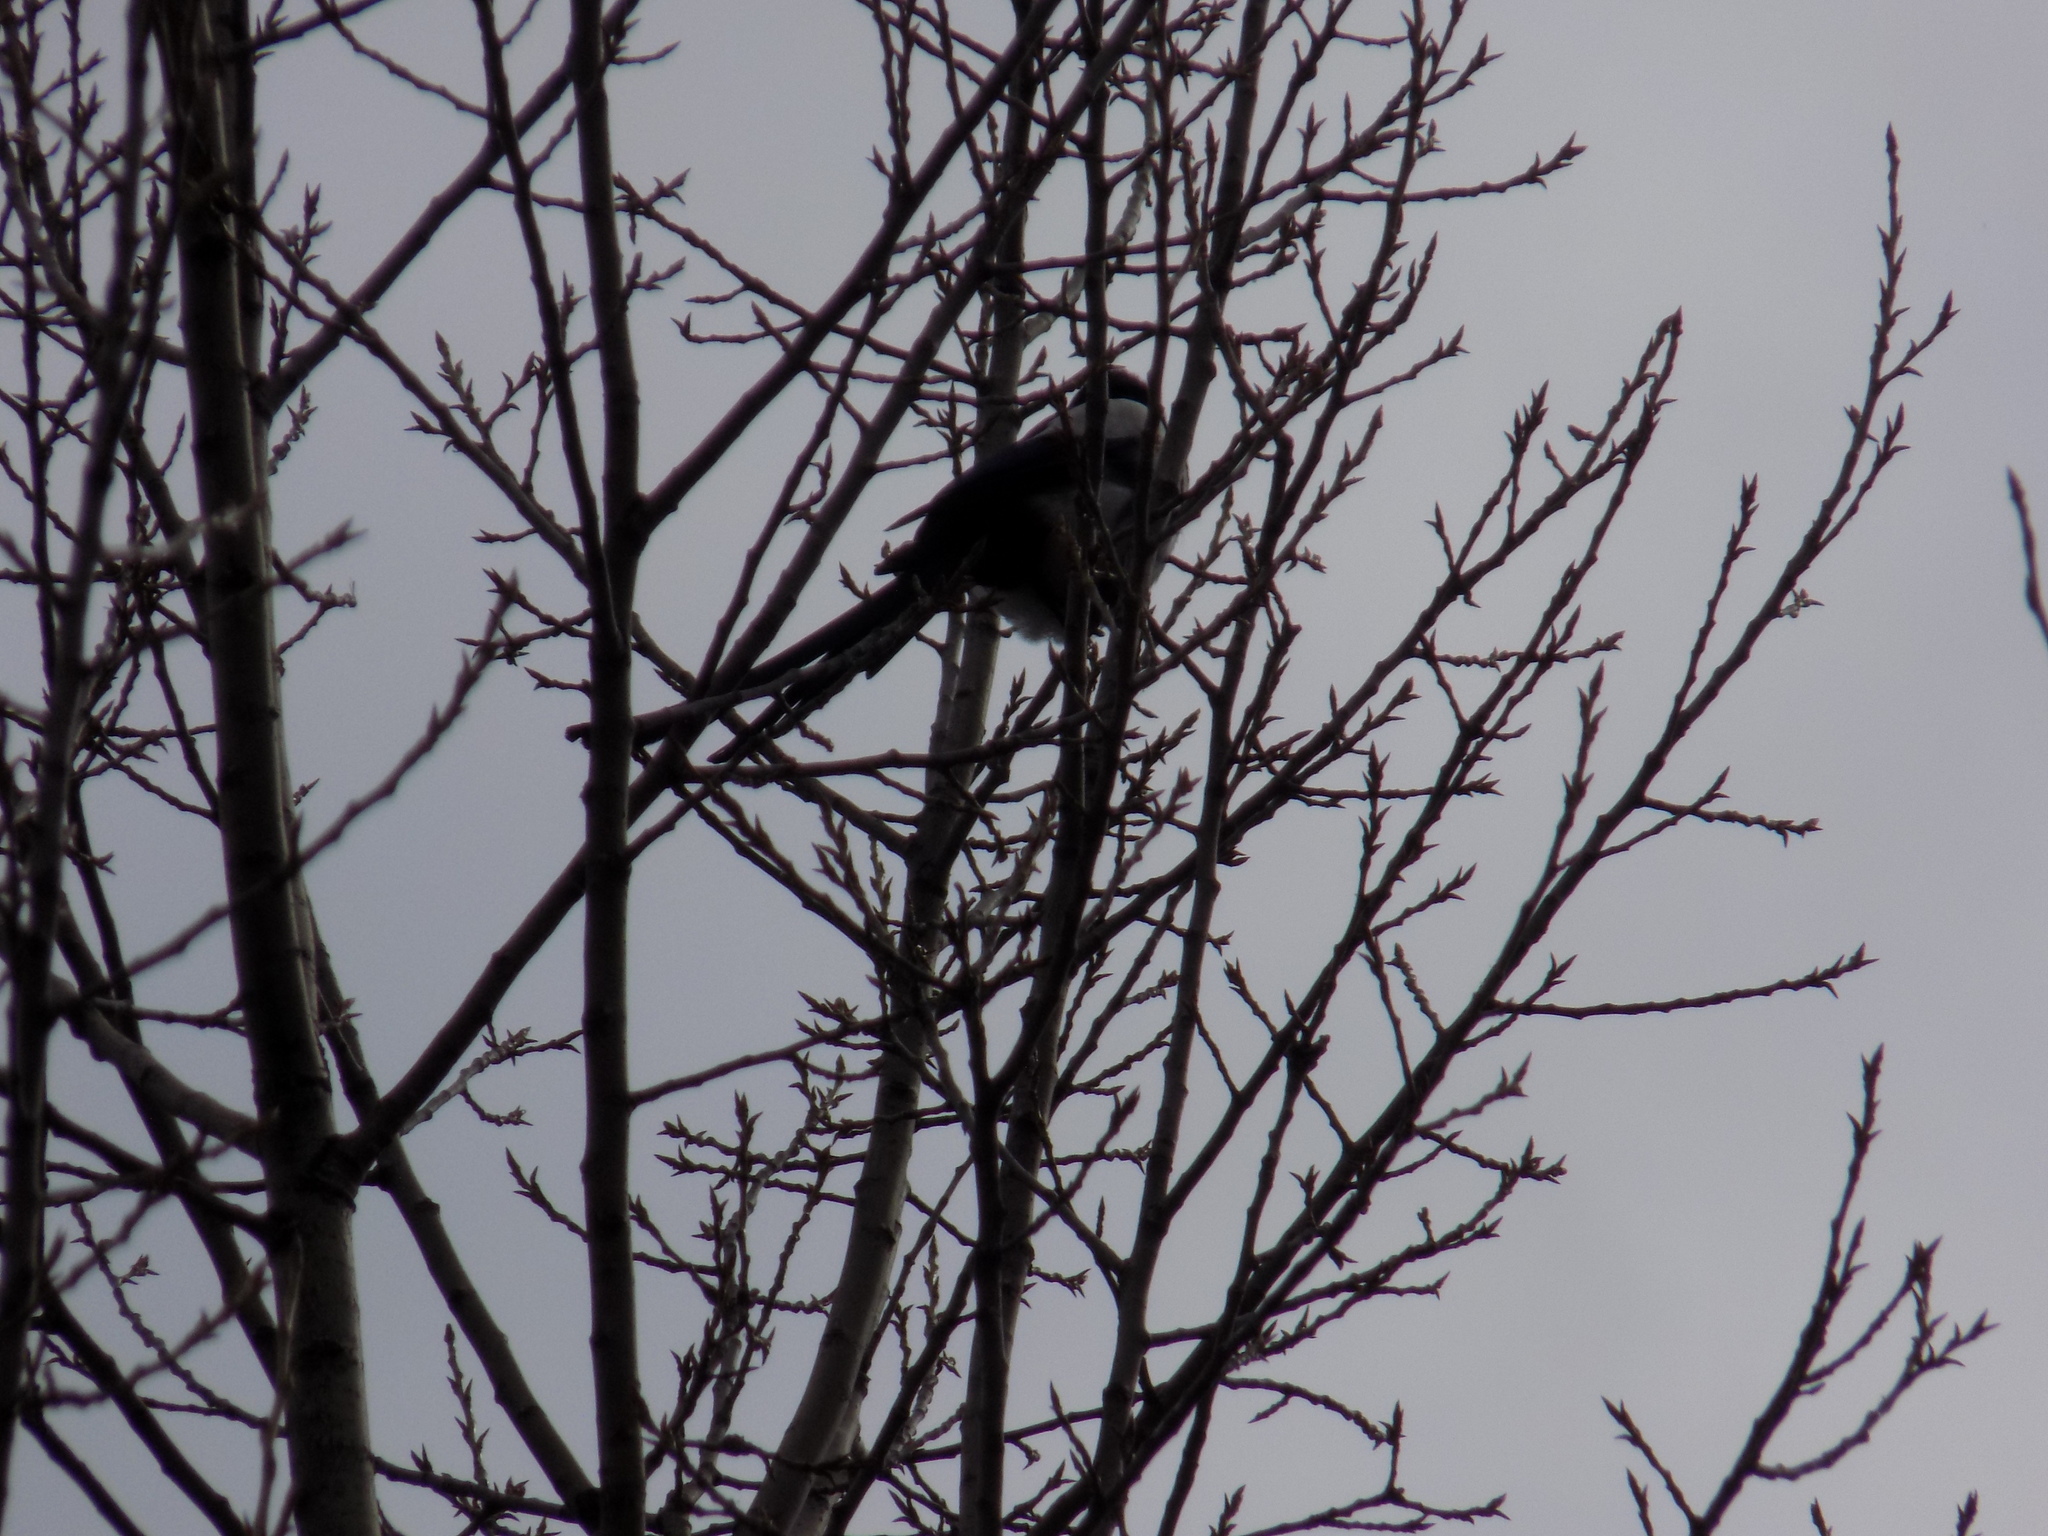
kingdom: Animalia
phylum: Chordata
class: Aves
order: Passeriformes
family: Corvidae
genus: Pica
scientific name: Pica pica
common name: Eurasian magpie
